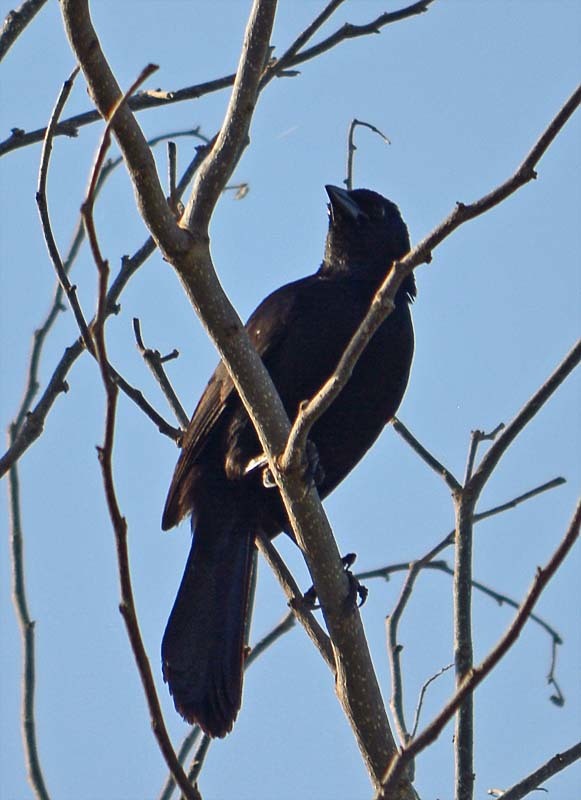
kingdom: Animalia
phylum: Chordata
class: Aves
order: Passeriformes
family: Mimidae
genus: Melanoptila
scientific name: Melanoptila glabrirostris
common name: Black catbird
